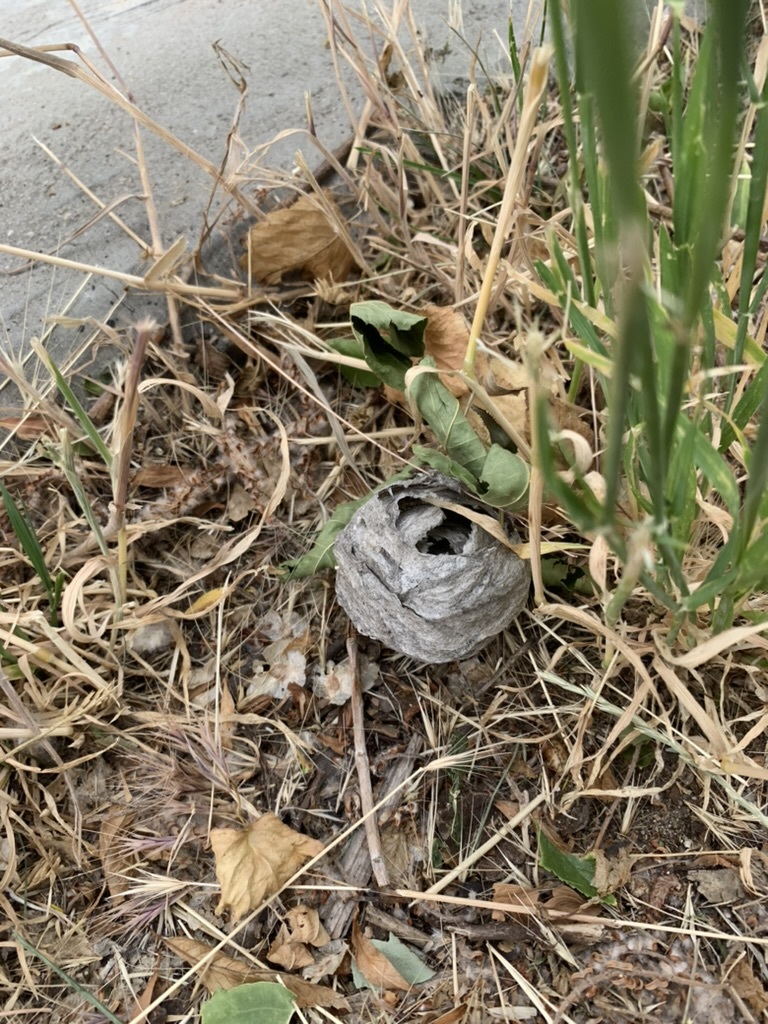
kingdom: Animalia
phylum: Arthropoda
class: Insecta
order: Hymenoptera
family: Vespidae
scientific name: Vespidae
